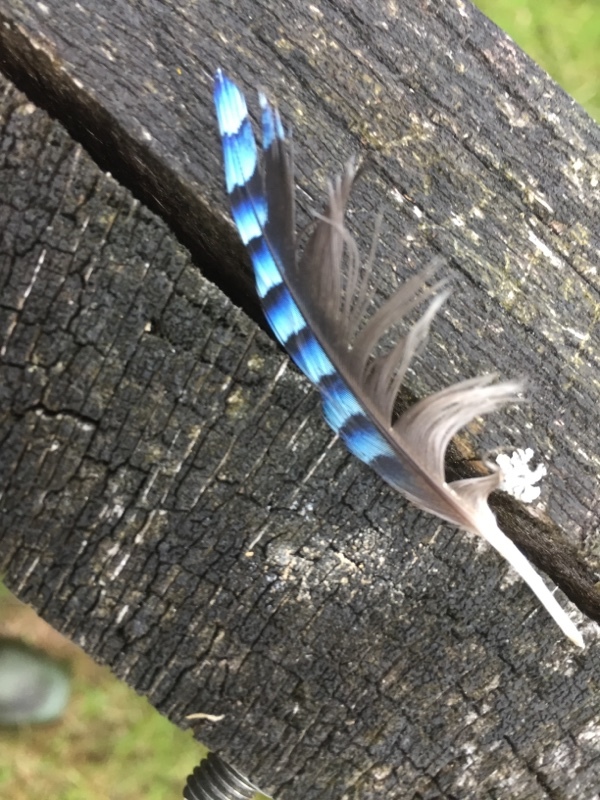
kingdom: Animalia
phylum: Chordata
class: Aves
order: Passeriformes
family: Corvidae
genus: Garrulus
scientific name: Garrulus glandarius
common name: Eurasian jay
